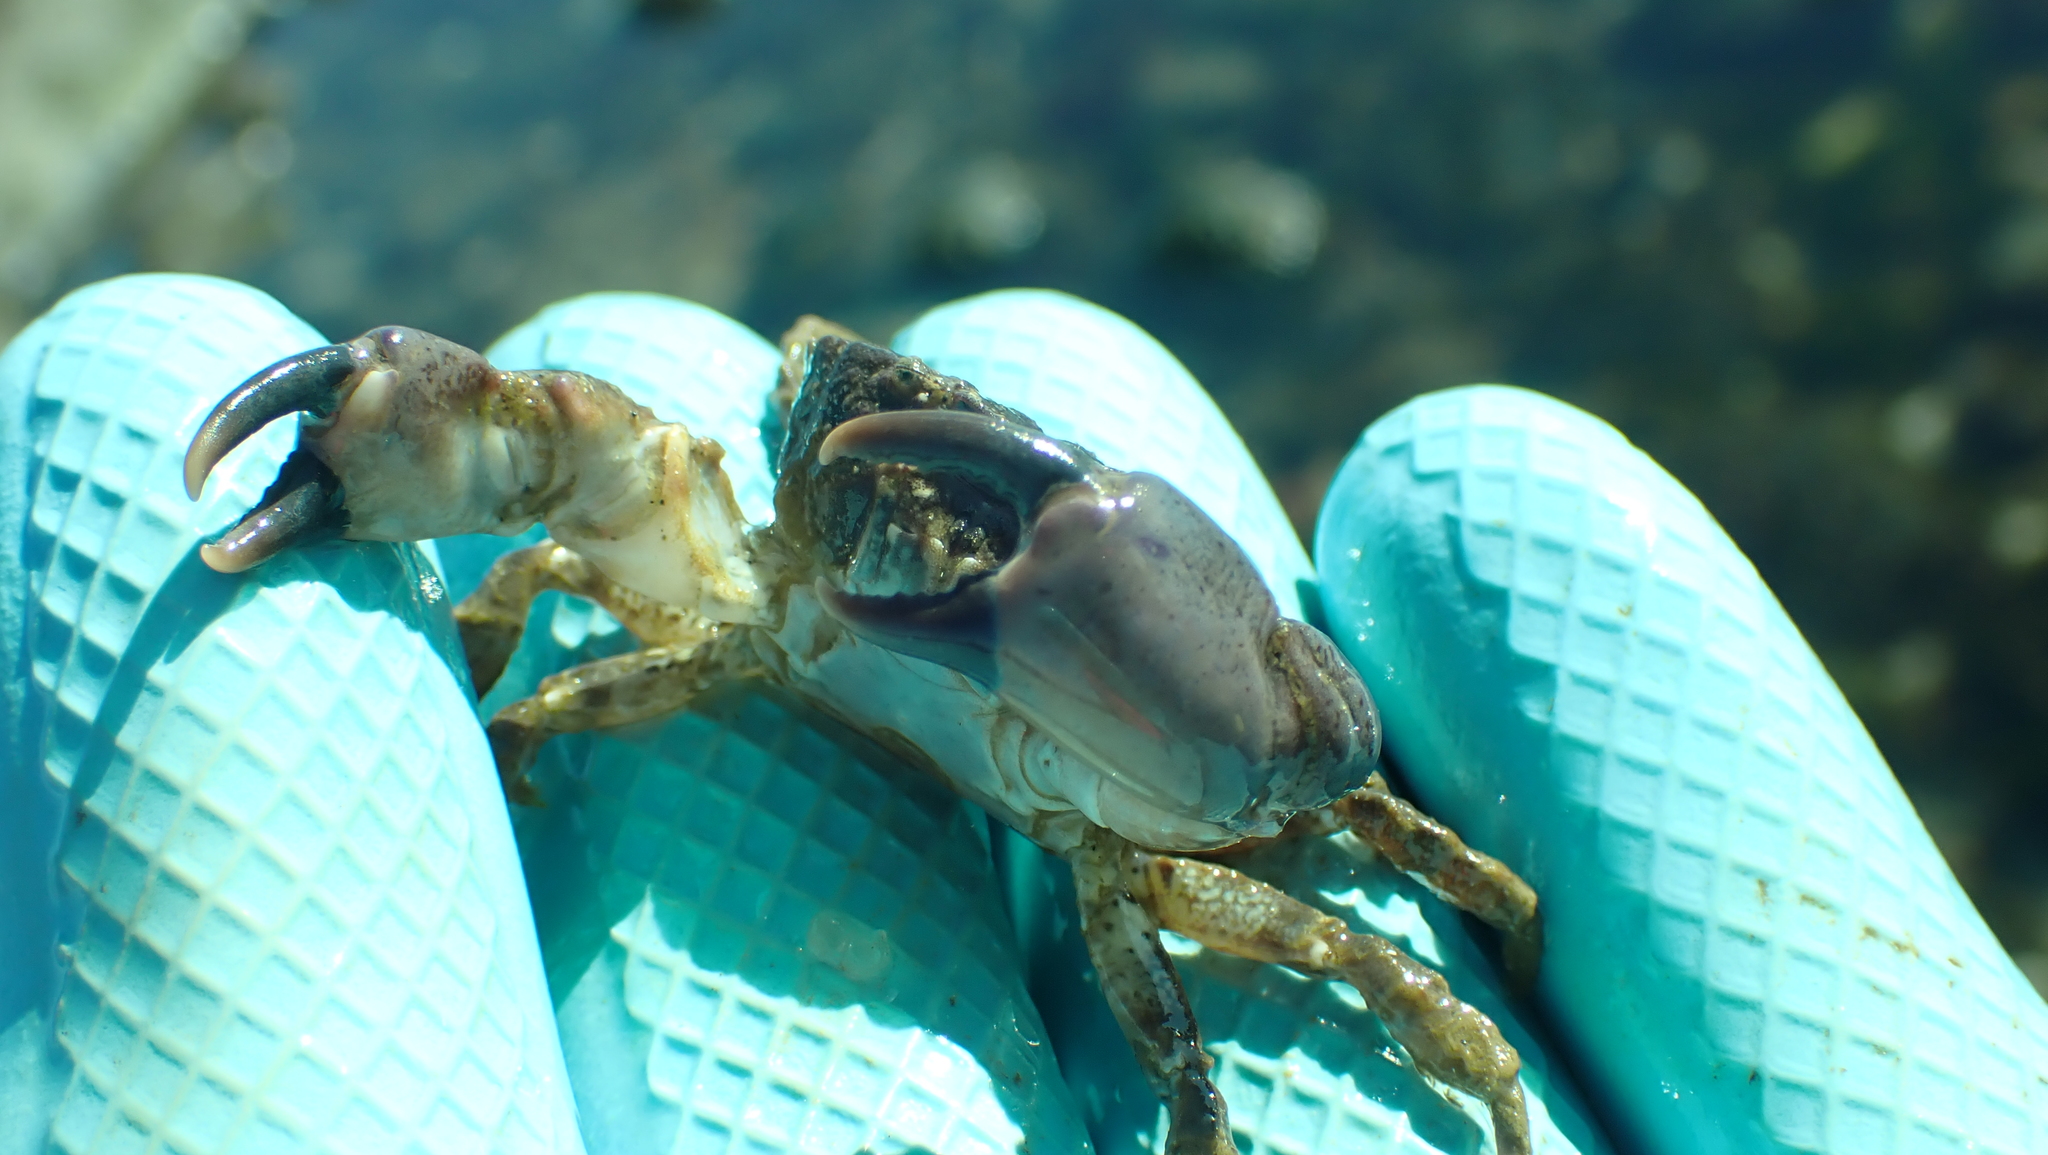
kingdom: Animalia
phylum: Arthropoda
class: Malacostraca
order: Decapoda
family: Panopeidae
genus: Lophopanopeus
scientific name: Lophopanopeus bellus
